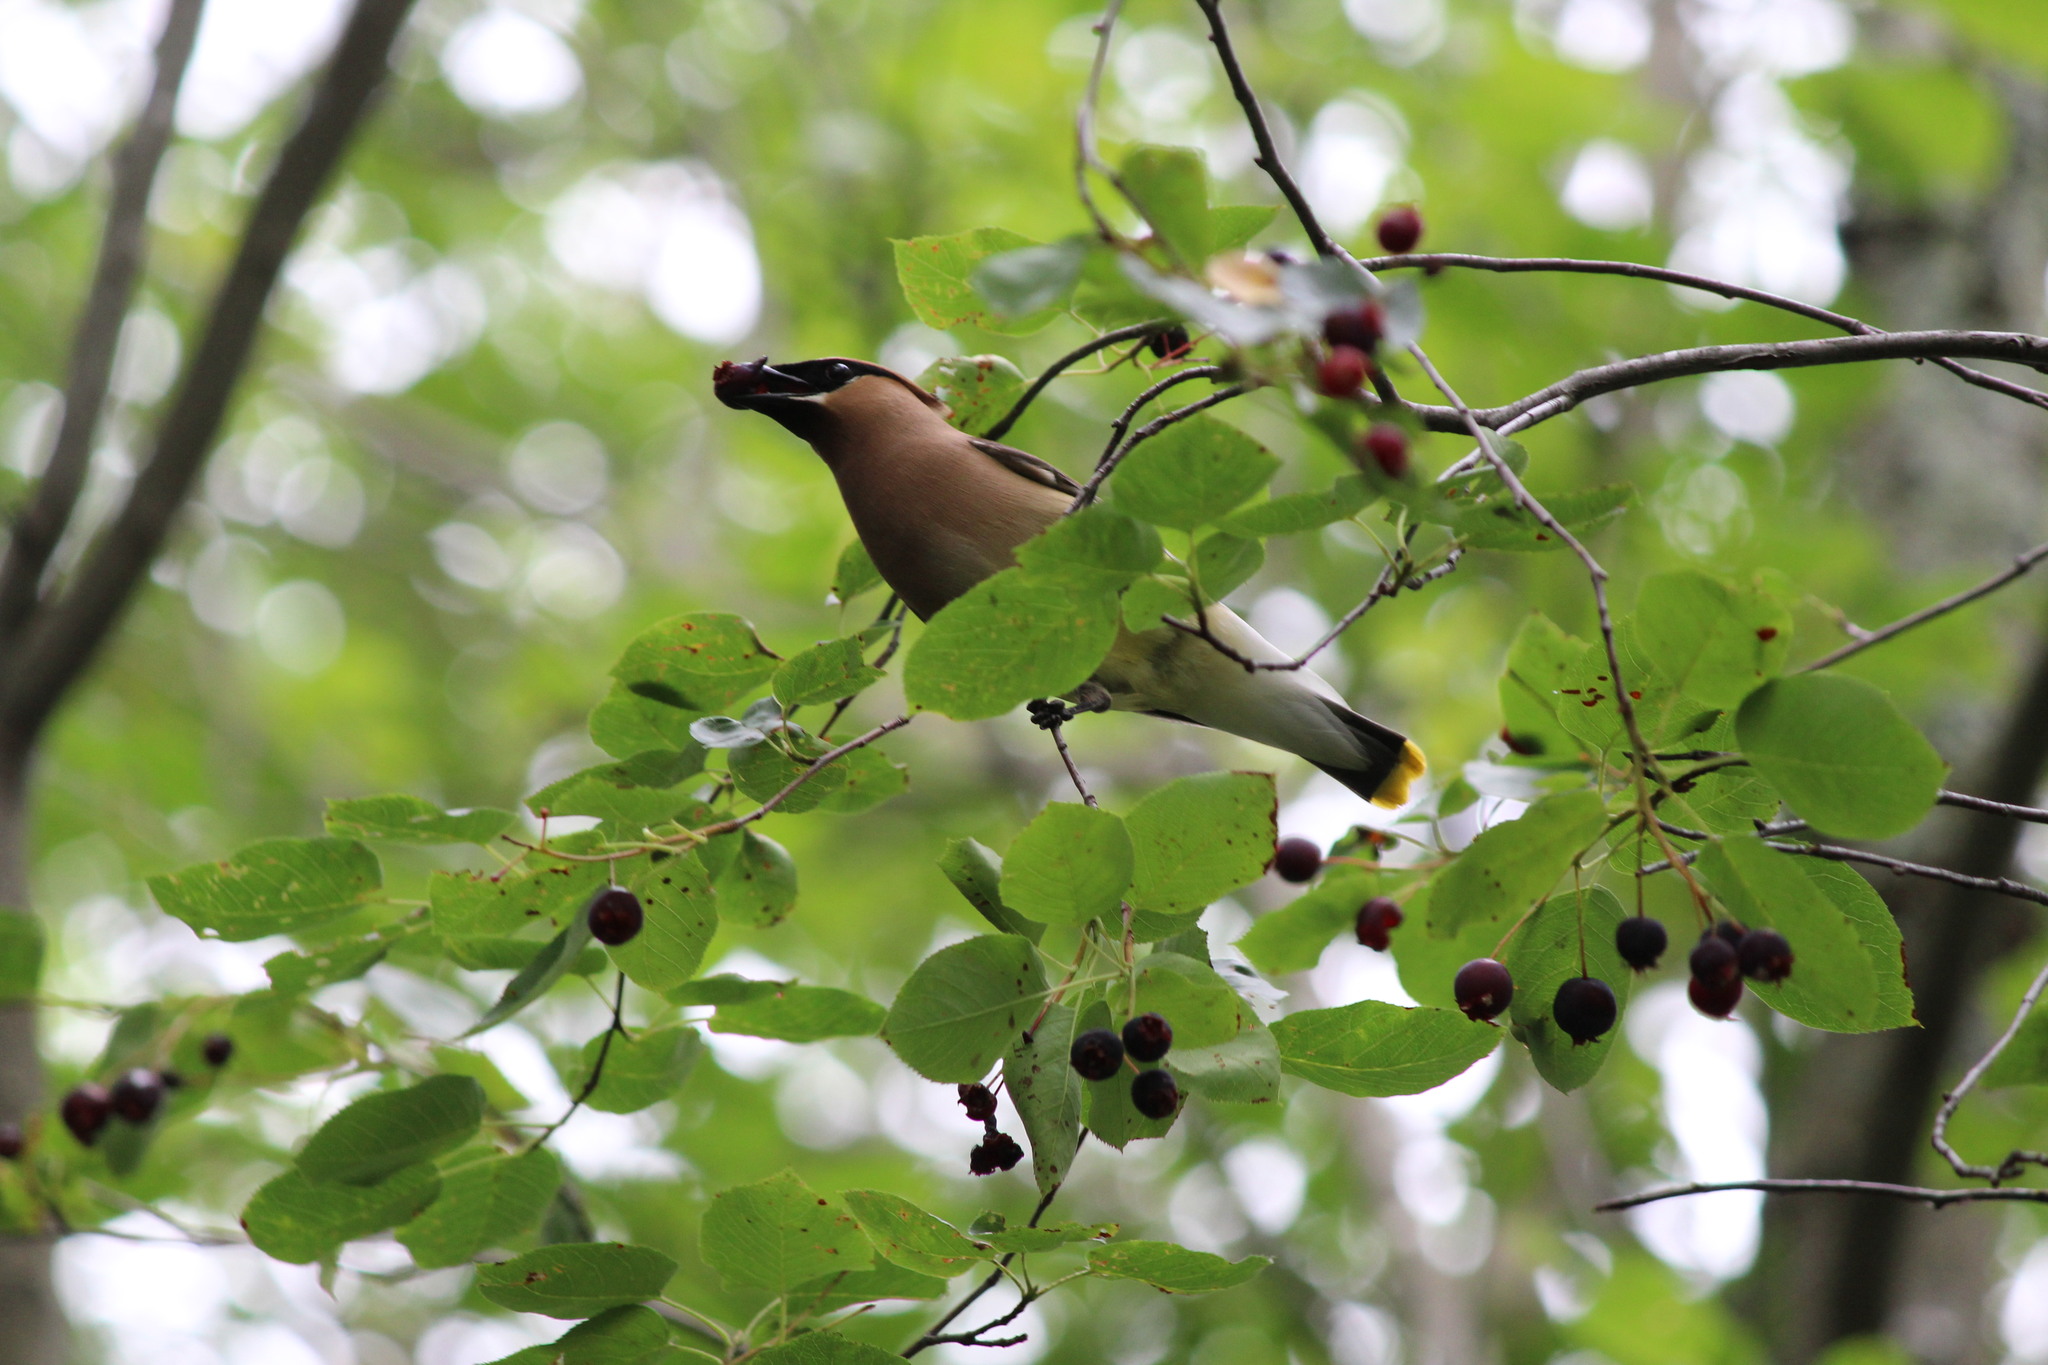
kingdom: Animalia
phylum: Chordata
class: Aves
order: Passeriformes
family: Bombycillidae
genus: Bombycilla
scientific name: Bombycilla cedrorum
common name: Cedar waxwing
